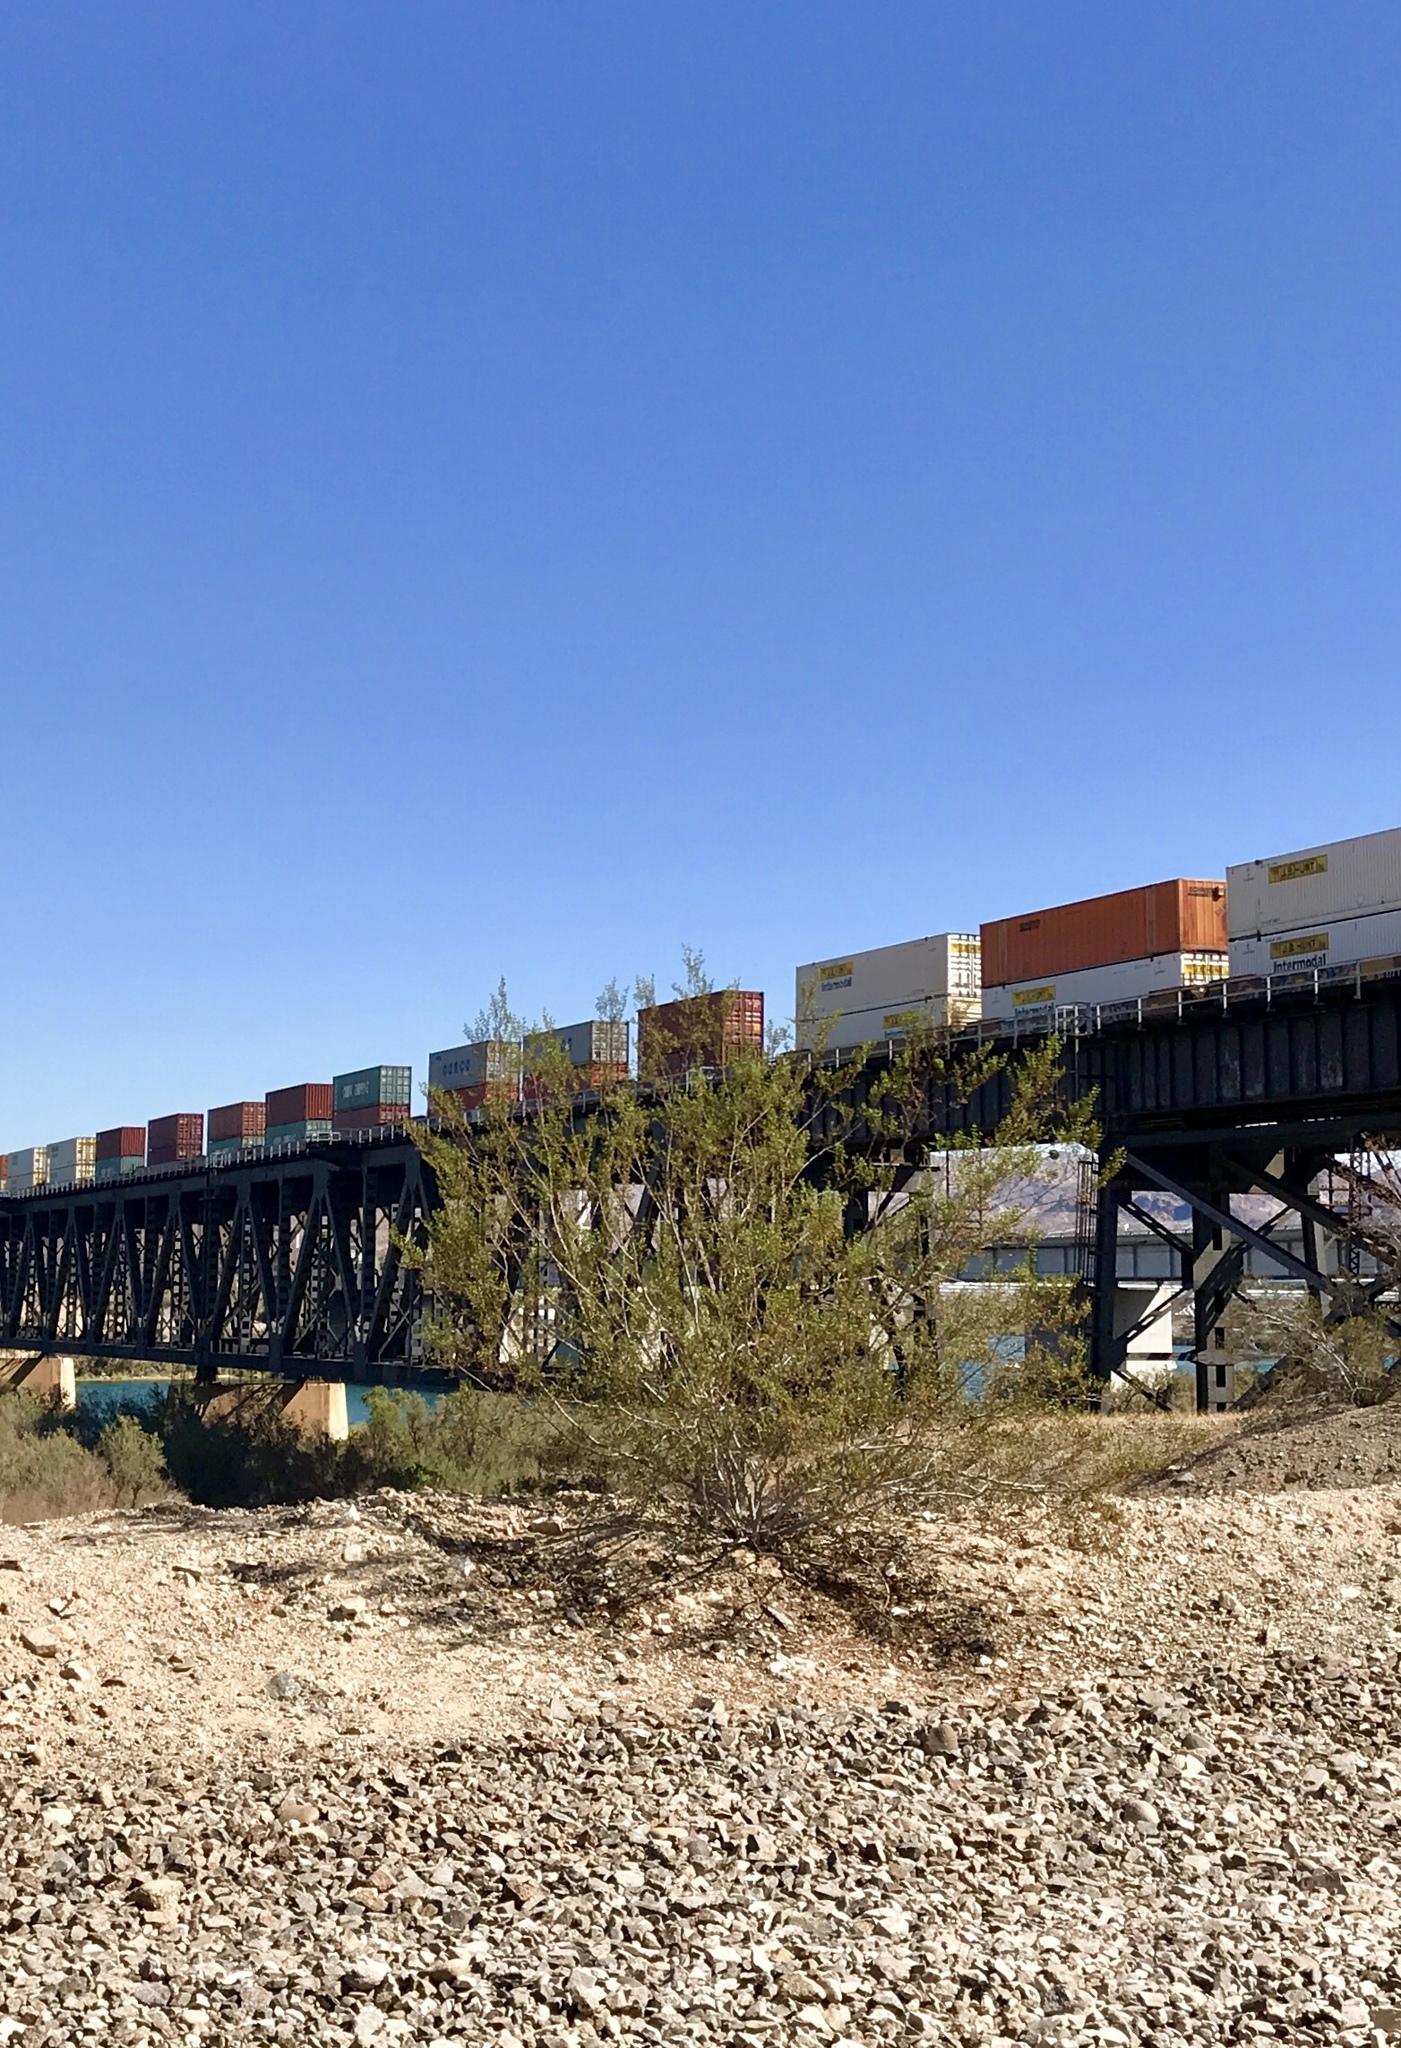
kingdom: Plantae
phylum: Tracheophyta
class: Magnoliopsida
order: Zygophyllales
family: Zygophyllaceae
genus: Larrea
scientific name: Larrea tridentata
